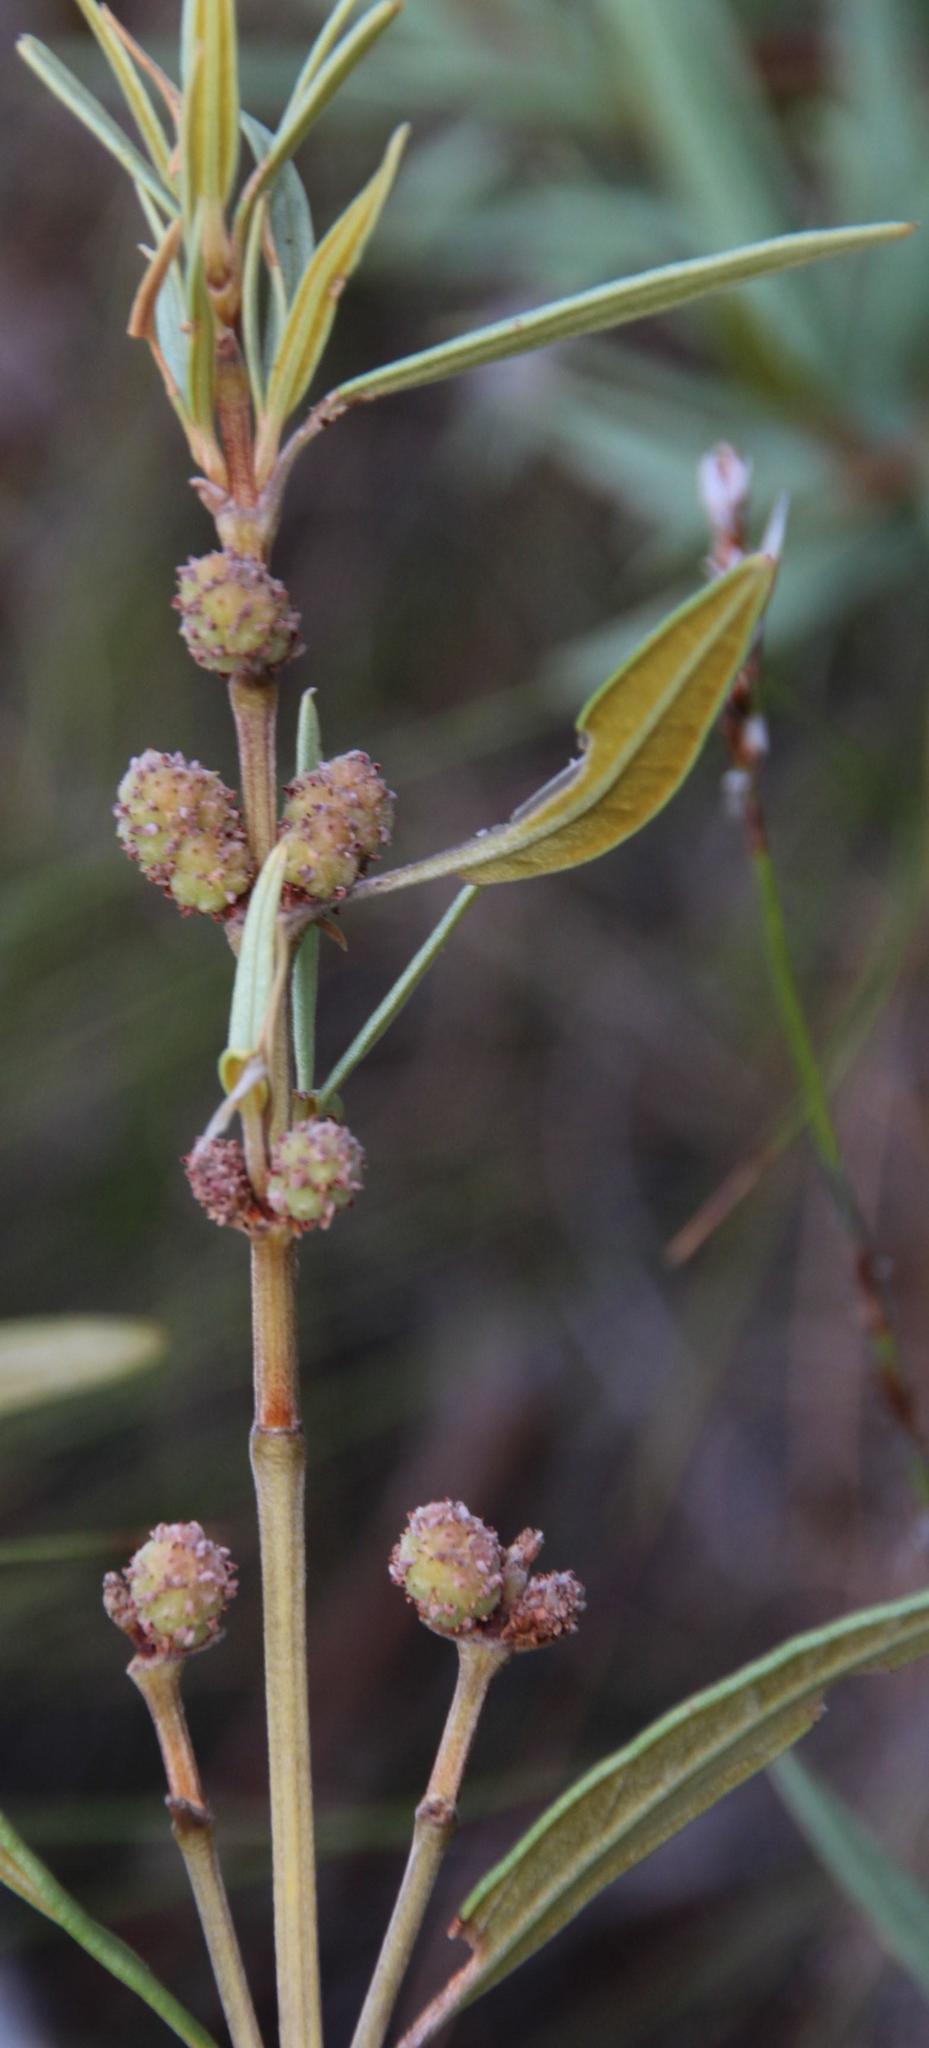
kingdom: Plantae
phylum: Tracheophyta
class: Magnoliopsida
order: Cornales
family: Grubbiaceae
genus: Grubbia
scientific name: Grubbia tomentosa
